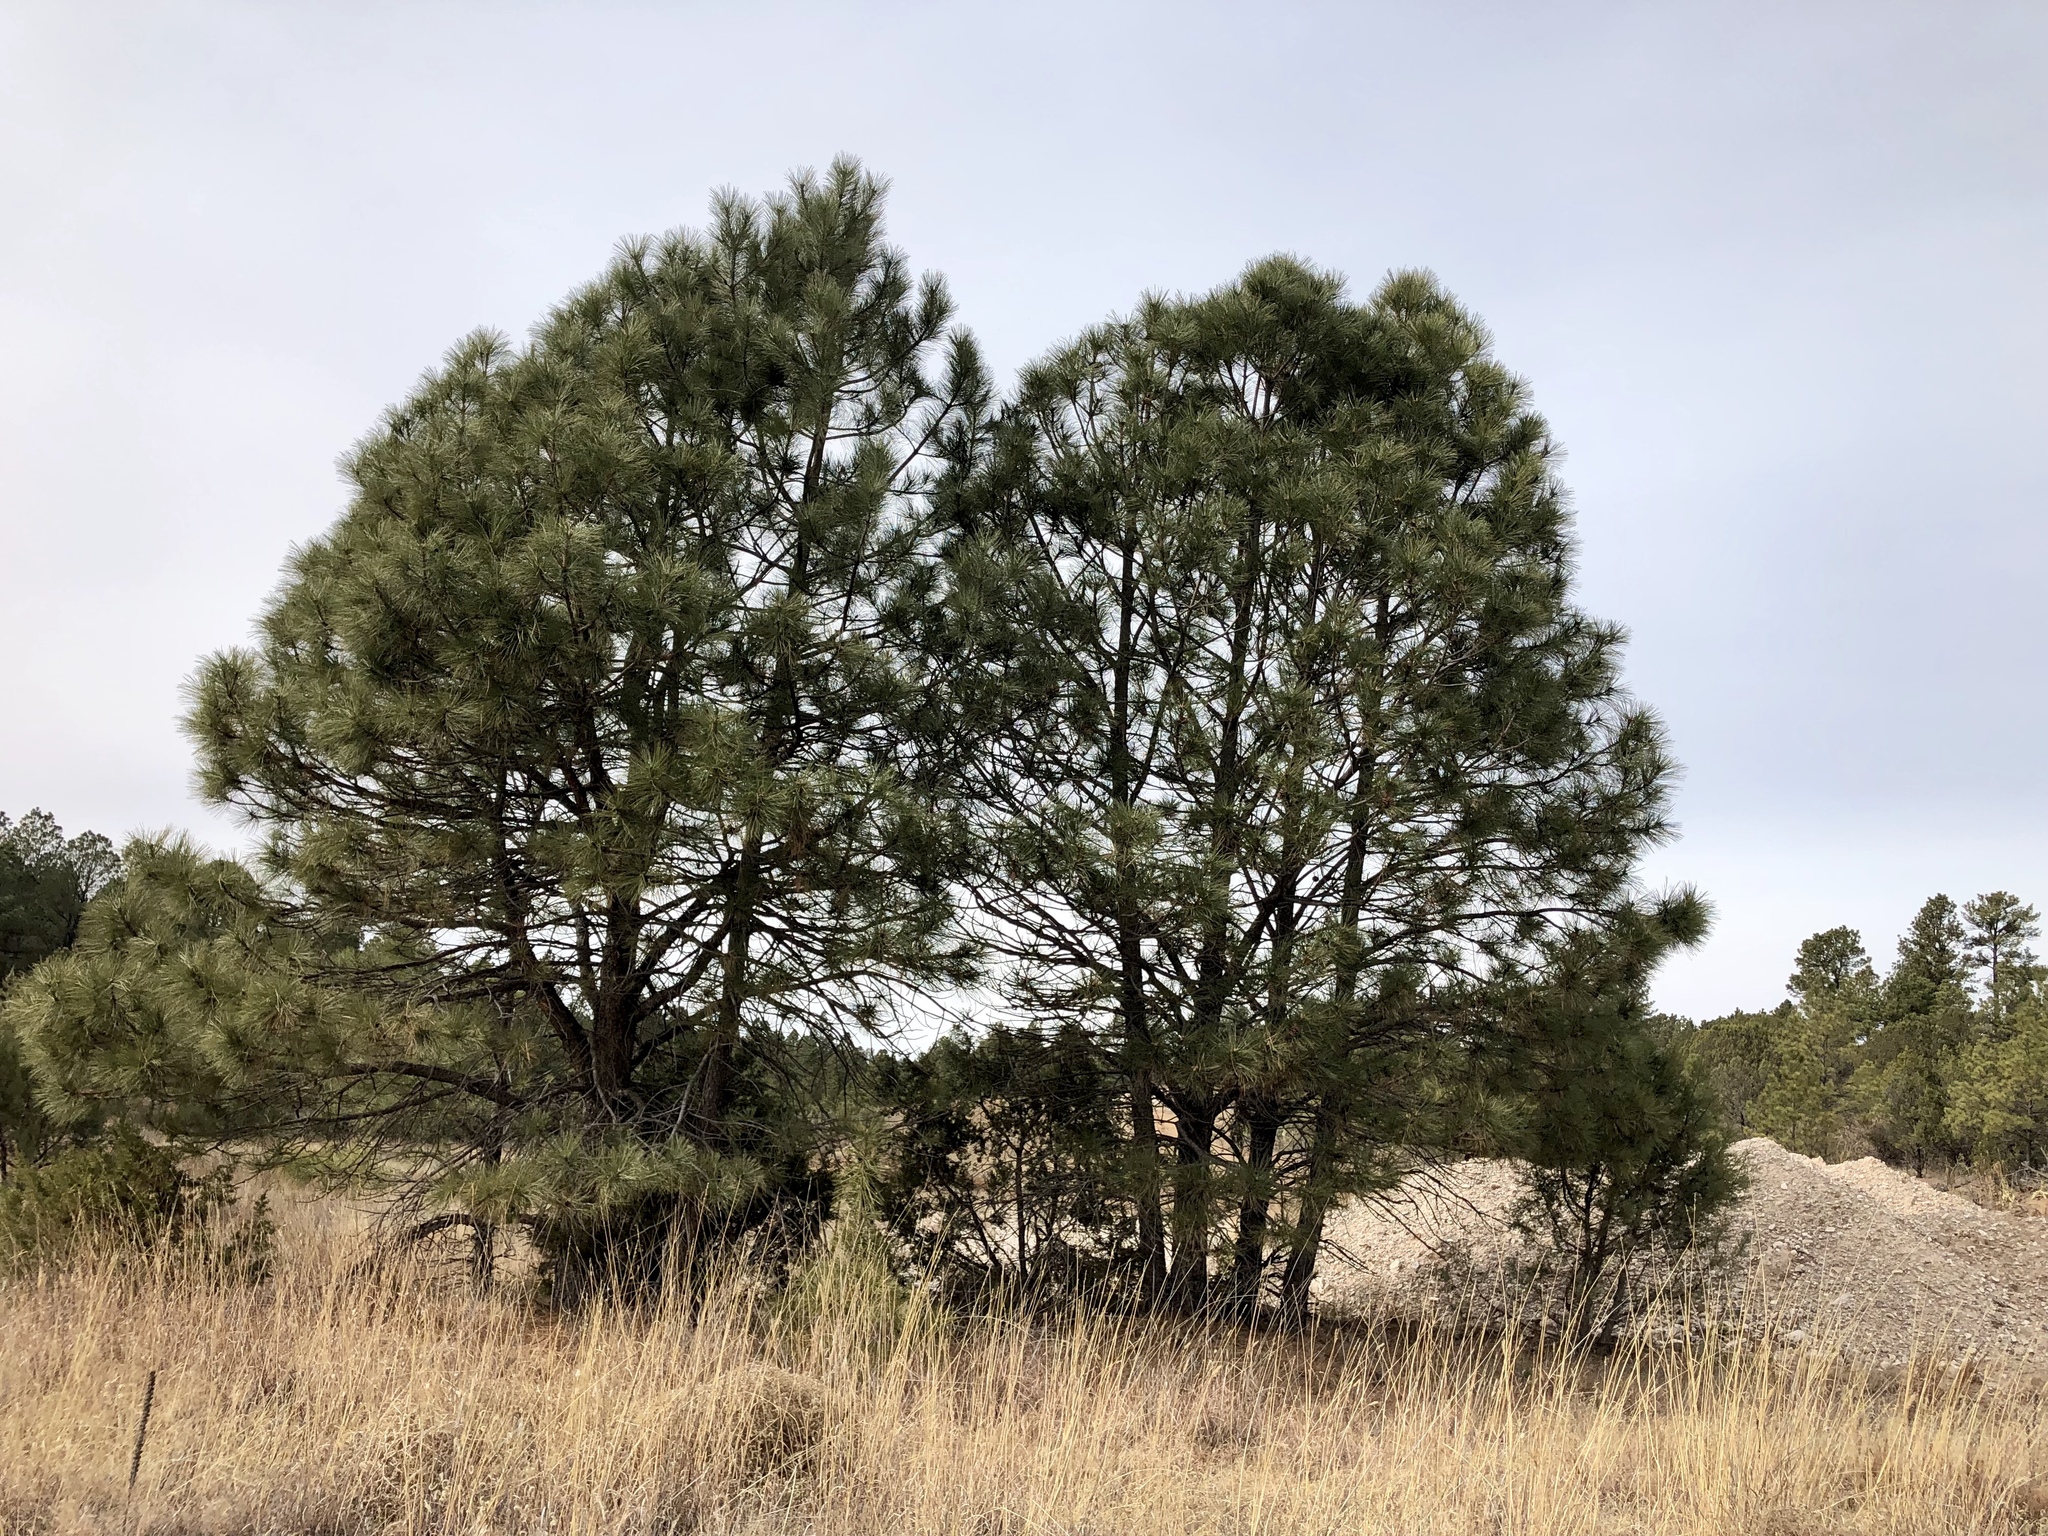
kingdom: Plantae
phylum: Tracheophyta
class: Pinopsida
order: Pinales
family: Pinaceae
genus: Pinus
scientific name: Pinus ponderosa
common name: Western yellow-pine
